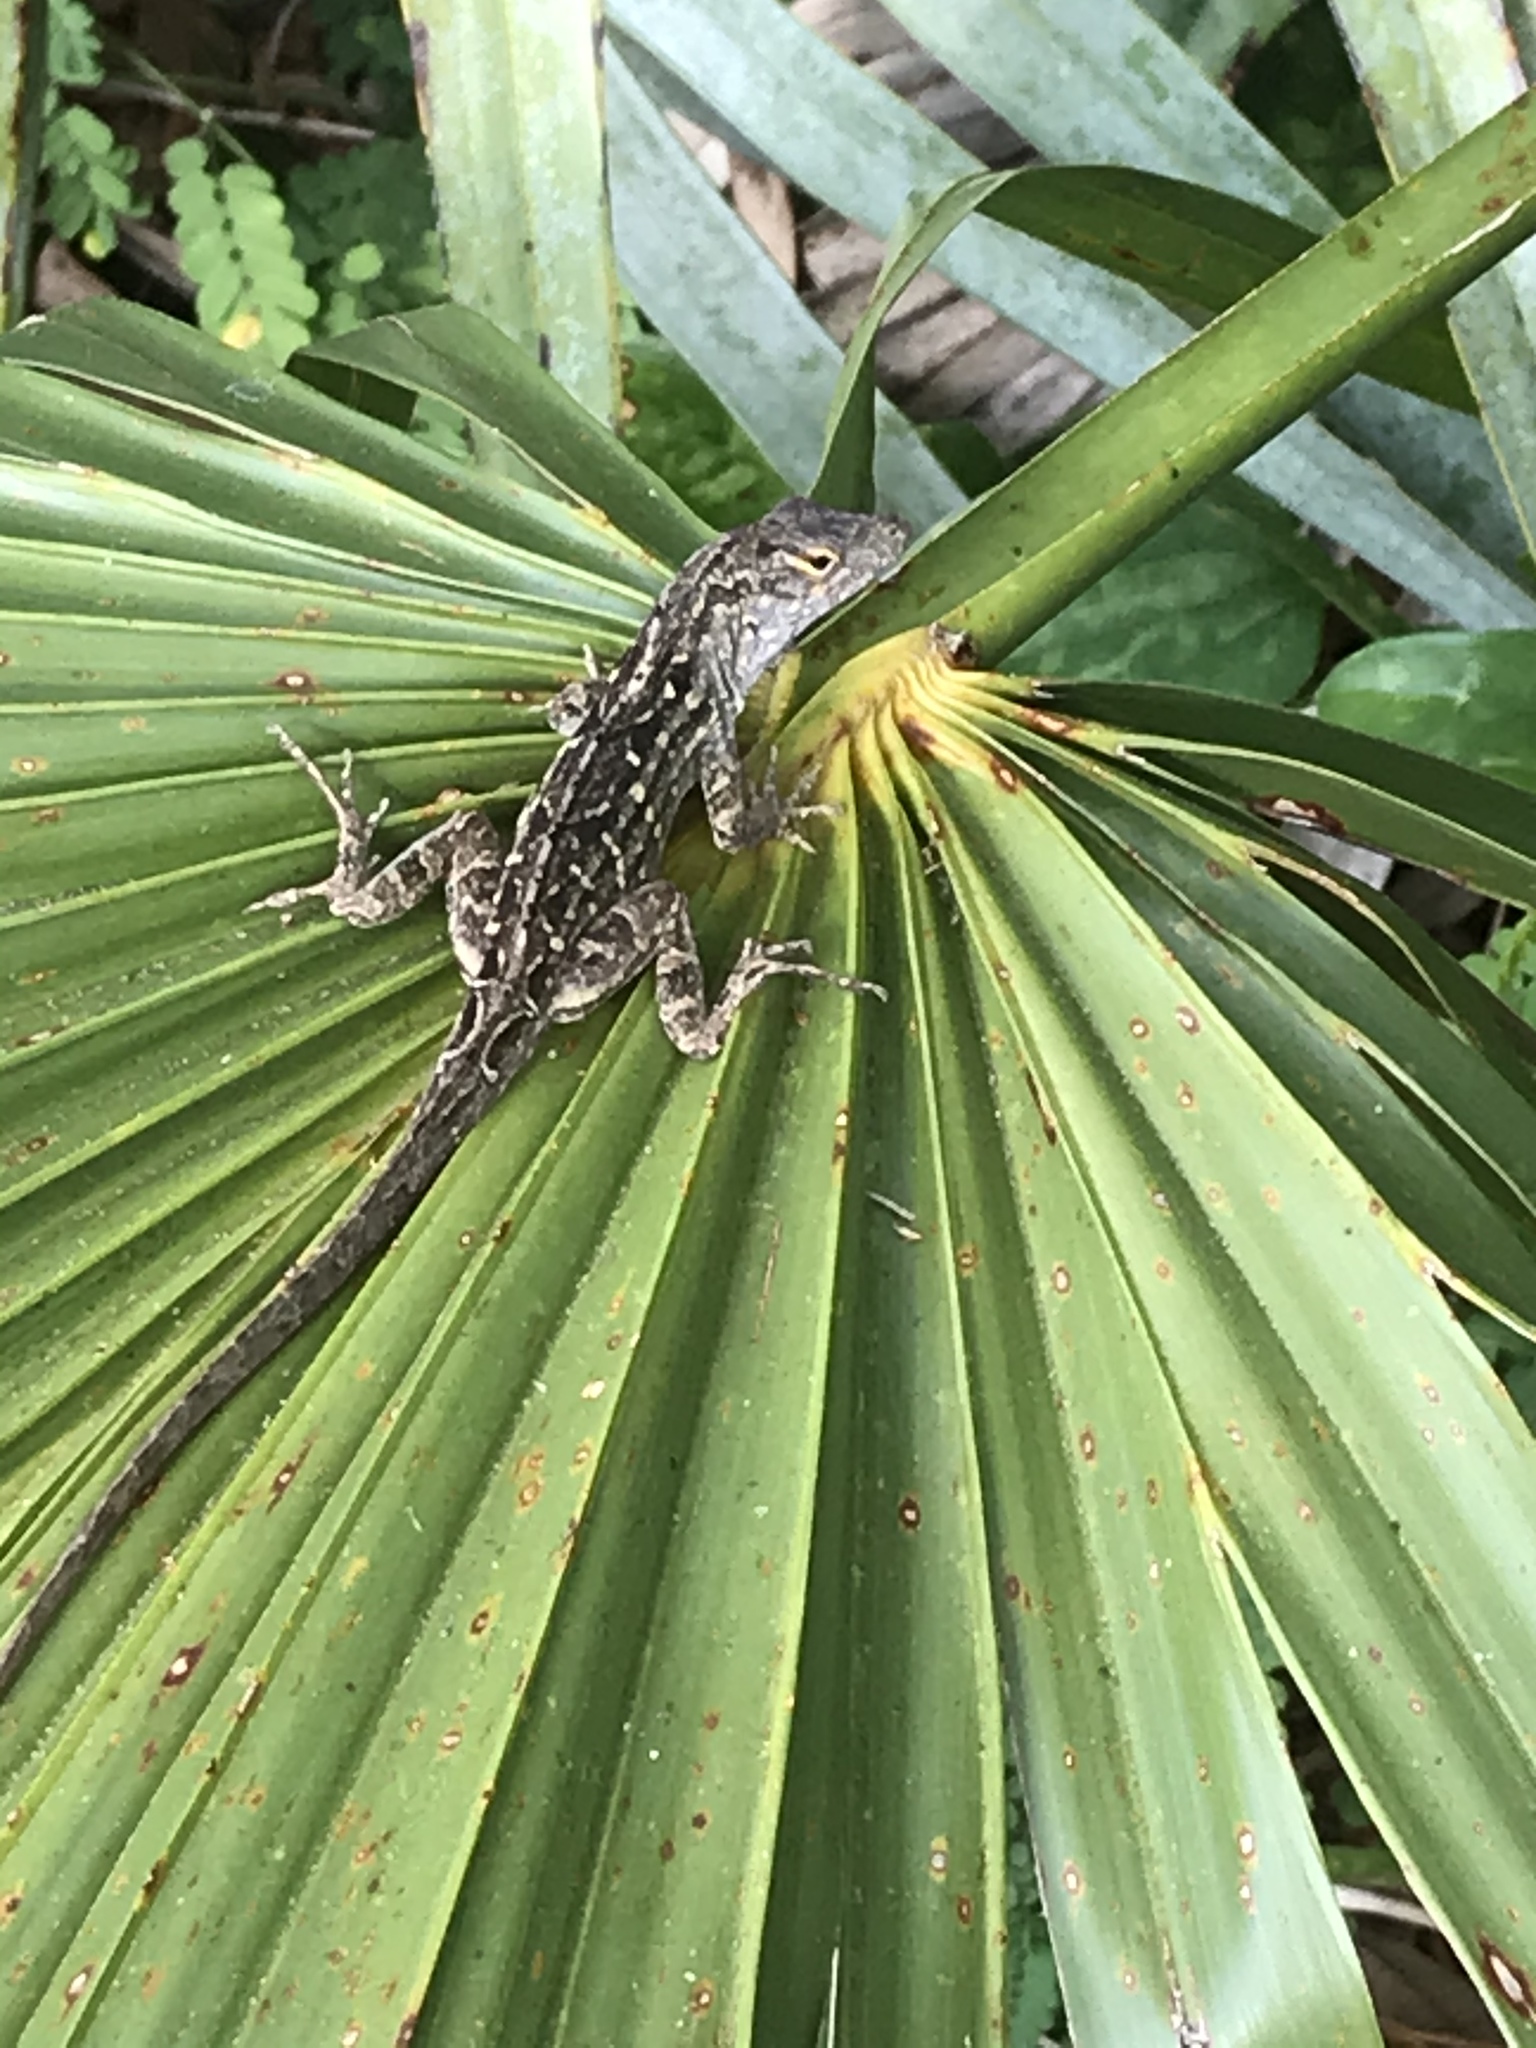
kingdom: Animalia
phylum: Chordata
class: Squamata
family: Dactyloidae
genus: Anolis
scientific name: Anolis sagrei
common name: Brown anole
